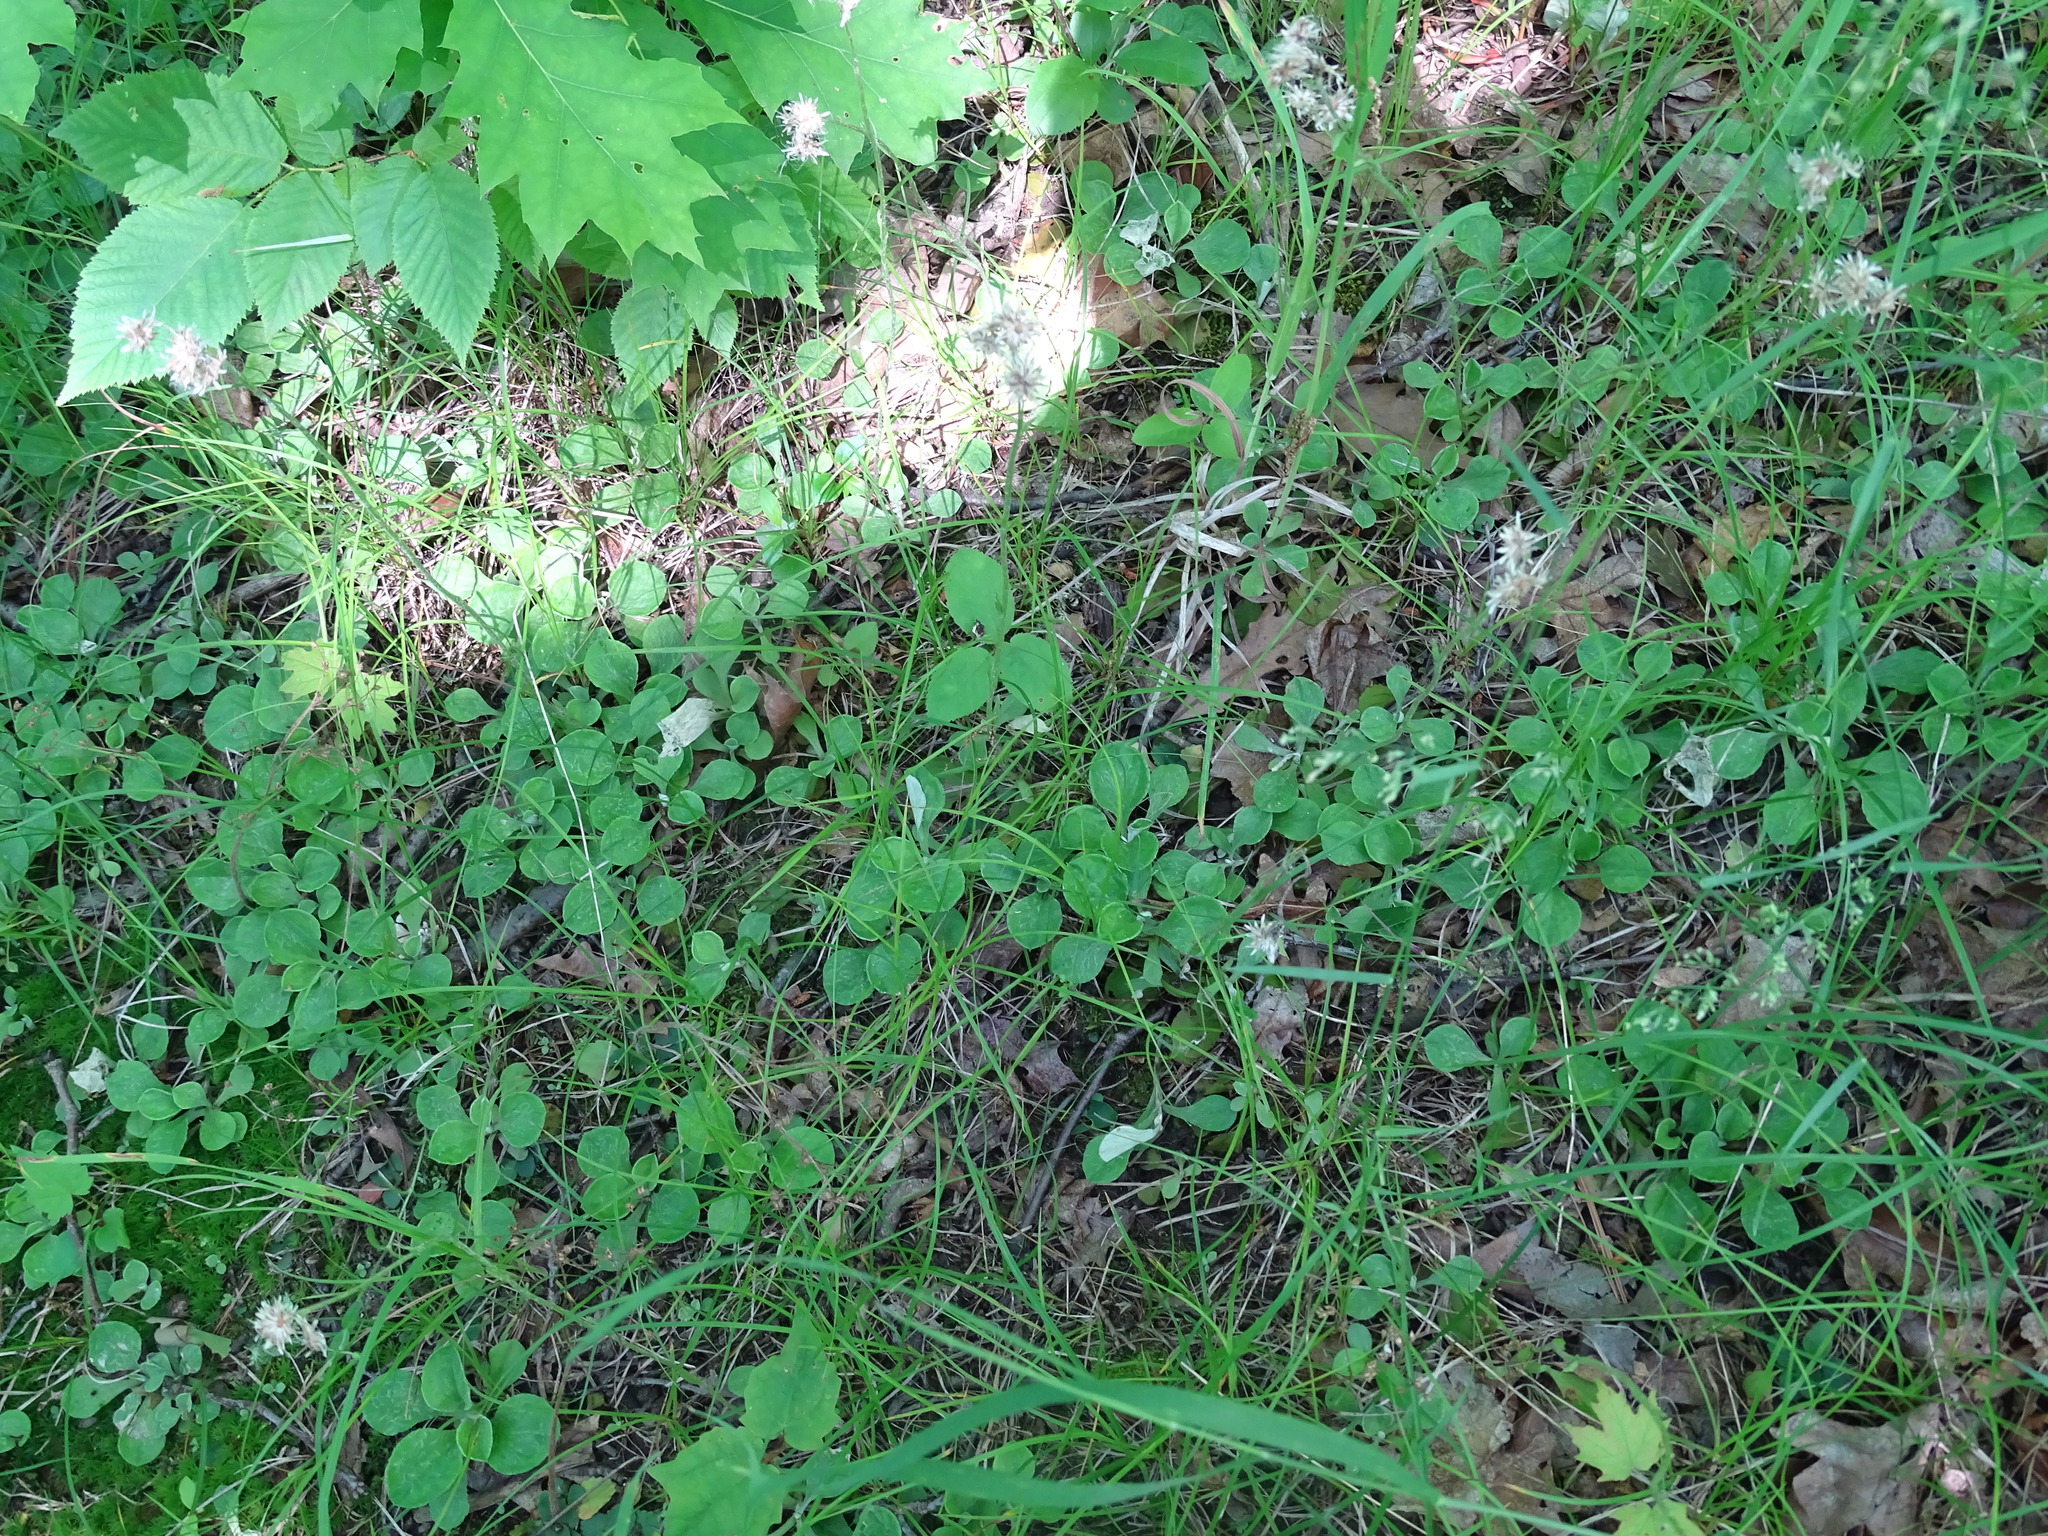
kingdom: Plantae
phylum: Tracheophyta
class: Magnoliopsida
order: Asterales
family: Asteraceae
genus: Antennaria
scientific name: Antennaria parlinii
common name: Parlin's pussytoes
